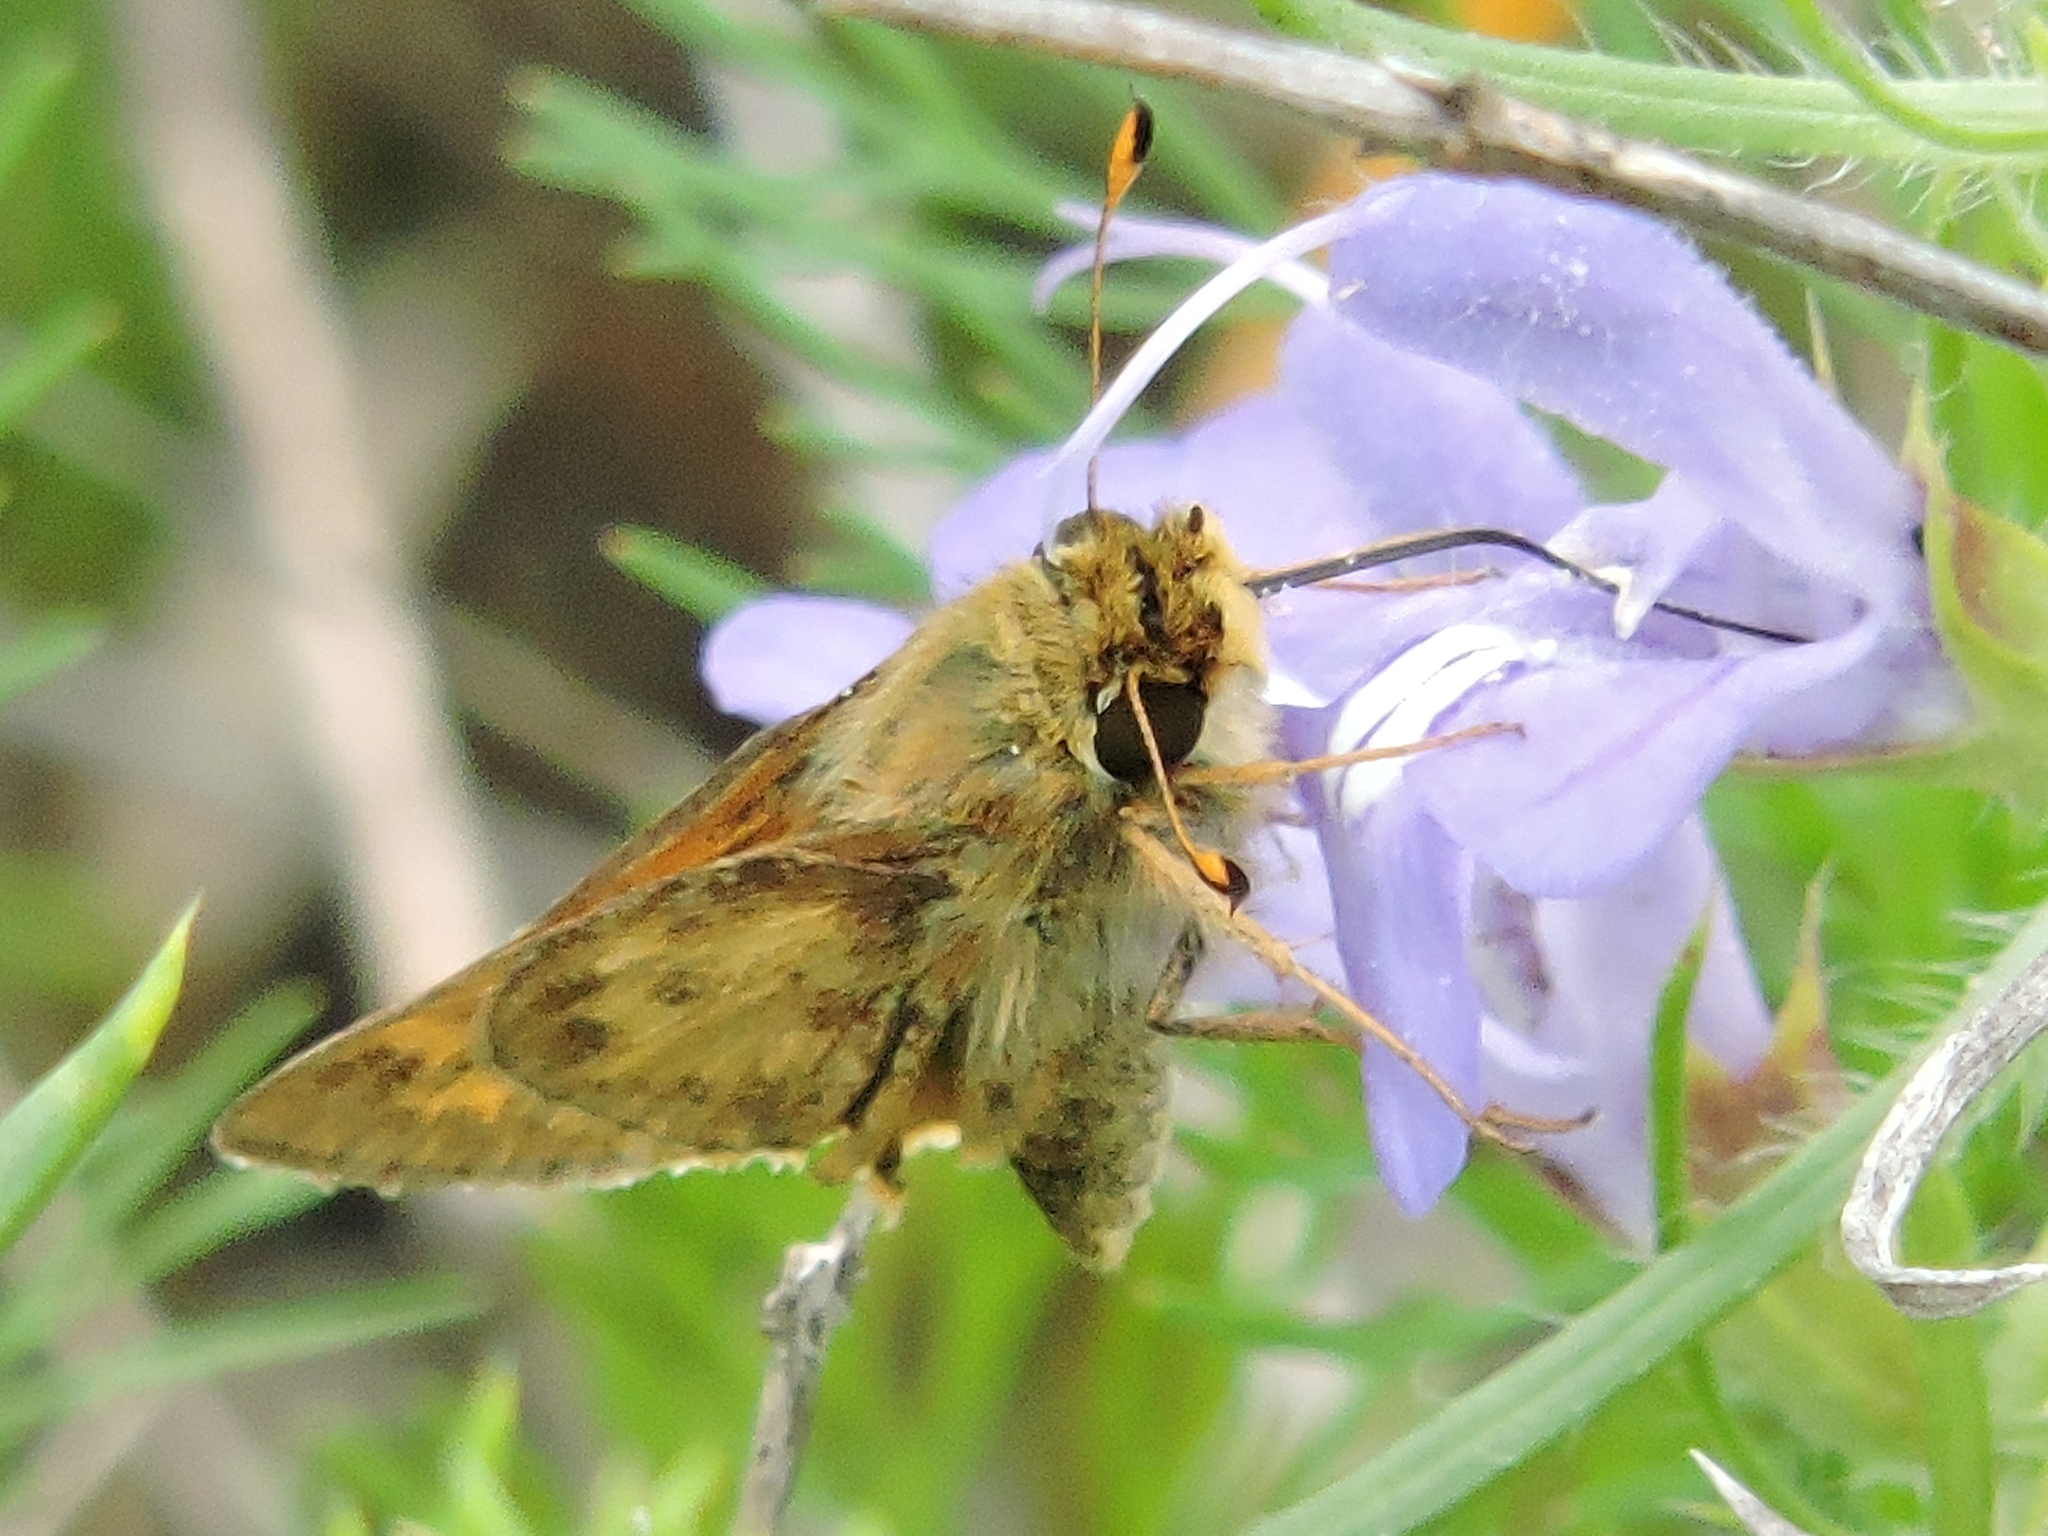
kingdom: Animalia
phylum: Arthropoda
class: Insecta
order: Lepidoptera
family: Hesperiidae
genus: Hylephila
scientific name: Hylephila phyleus
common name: Fiery skipper
